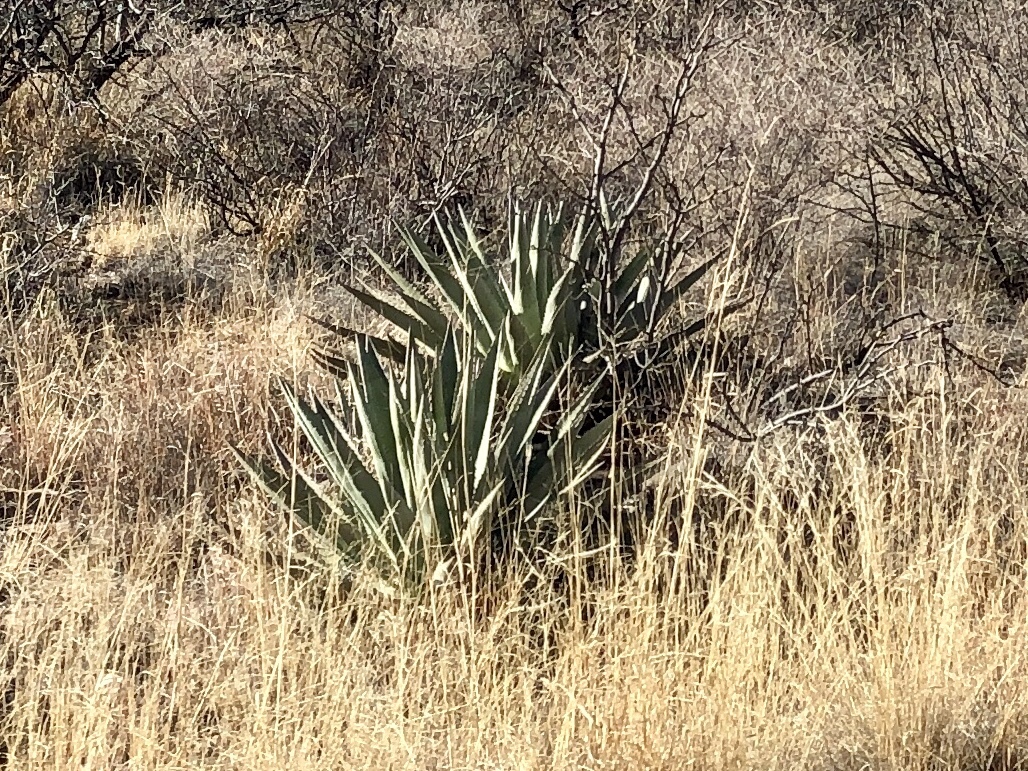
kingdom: Plantae
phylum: Tracheophyta
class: Liliopsida
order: Asparagales
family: Asparagaceae
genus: Agave
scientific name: Agave
